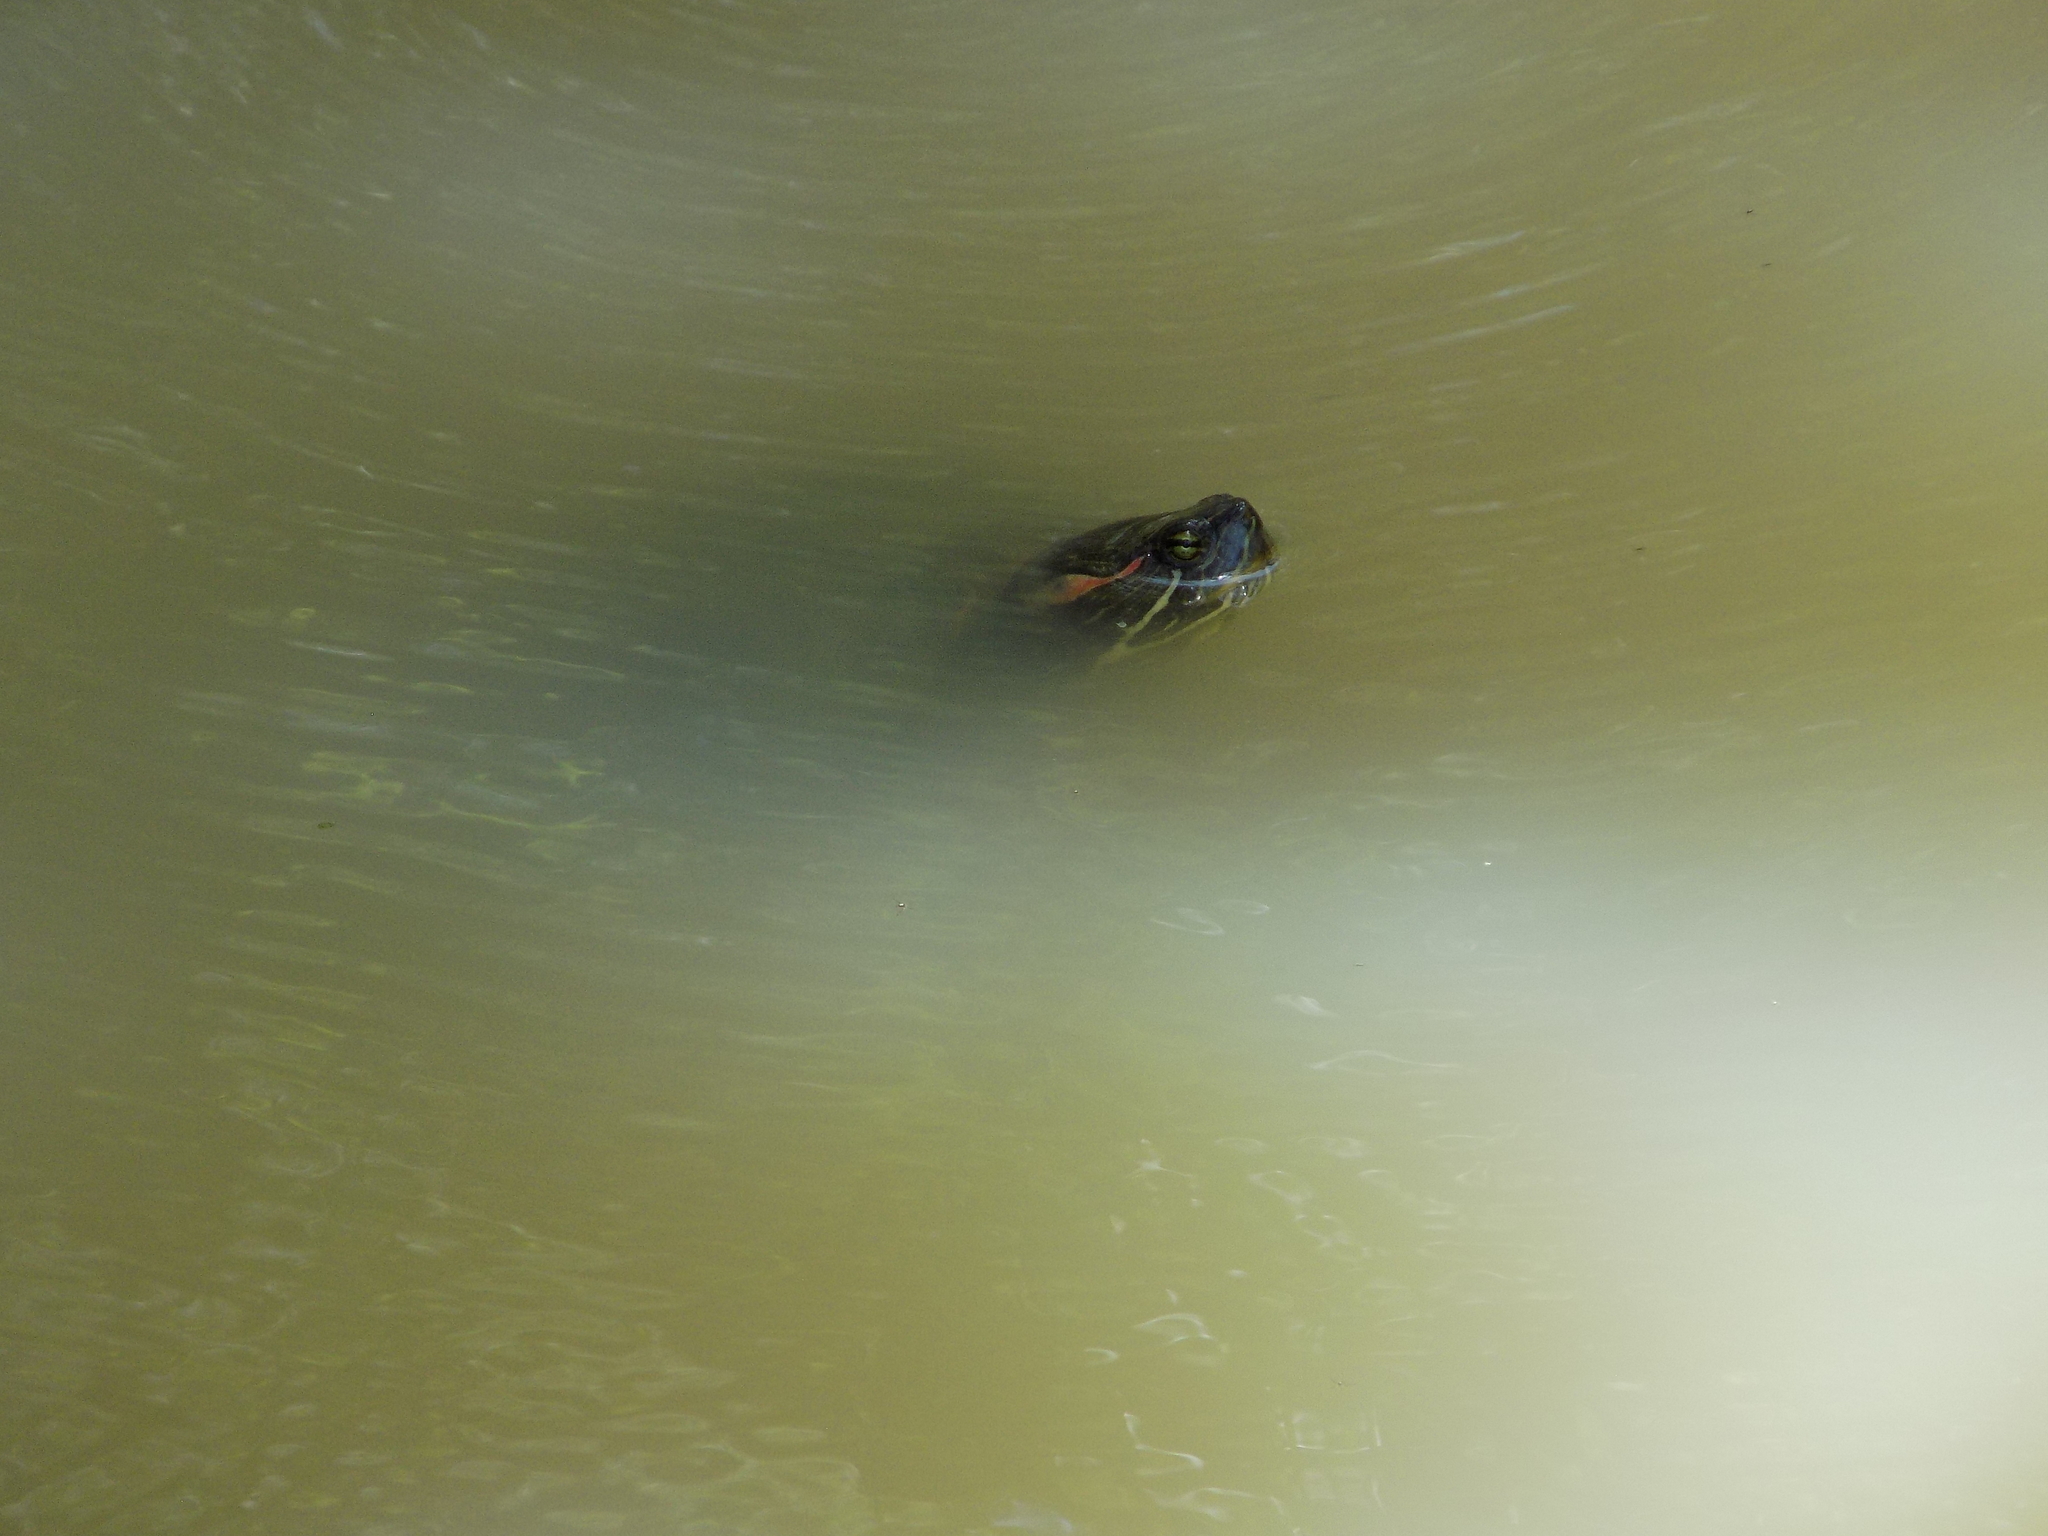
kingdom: Animalia
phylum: Chordata
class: Testudines
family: Emydidae
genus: Trachemys
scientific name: Trachemys scripta
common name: Slider
